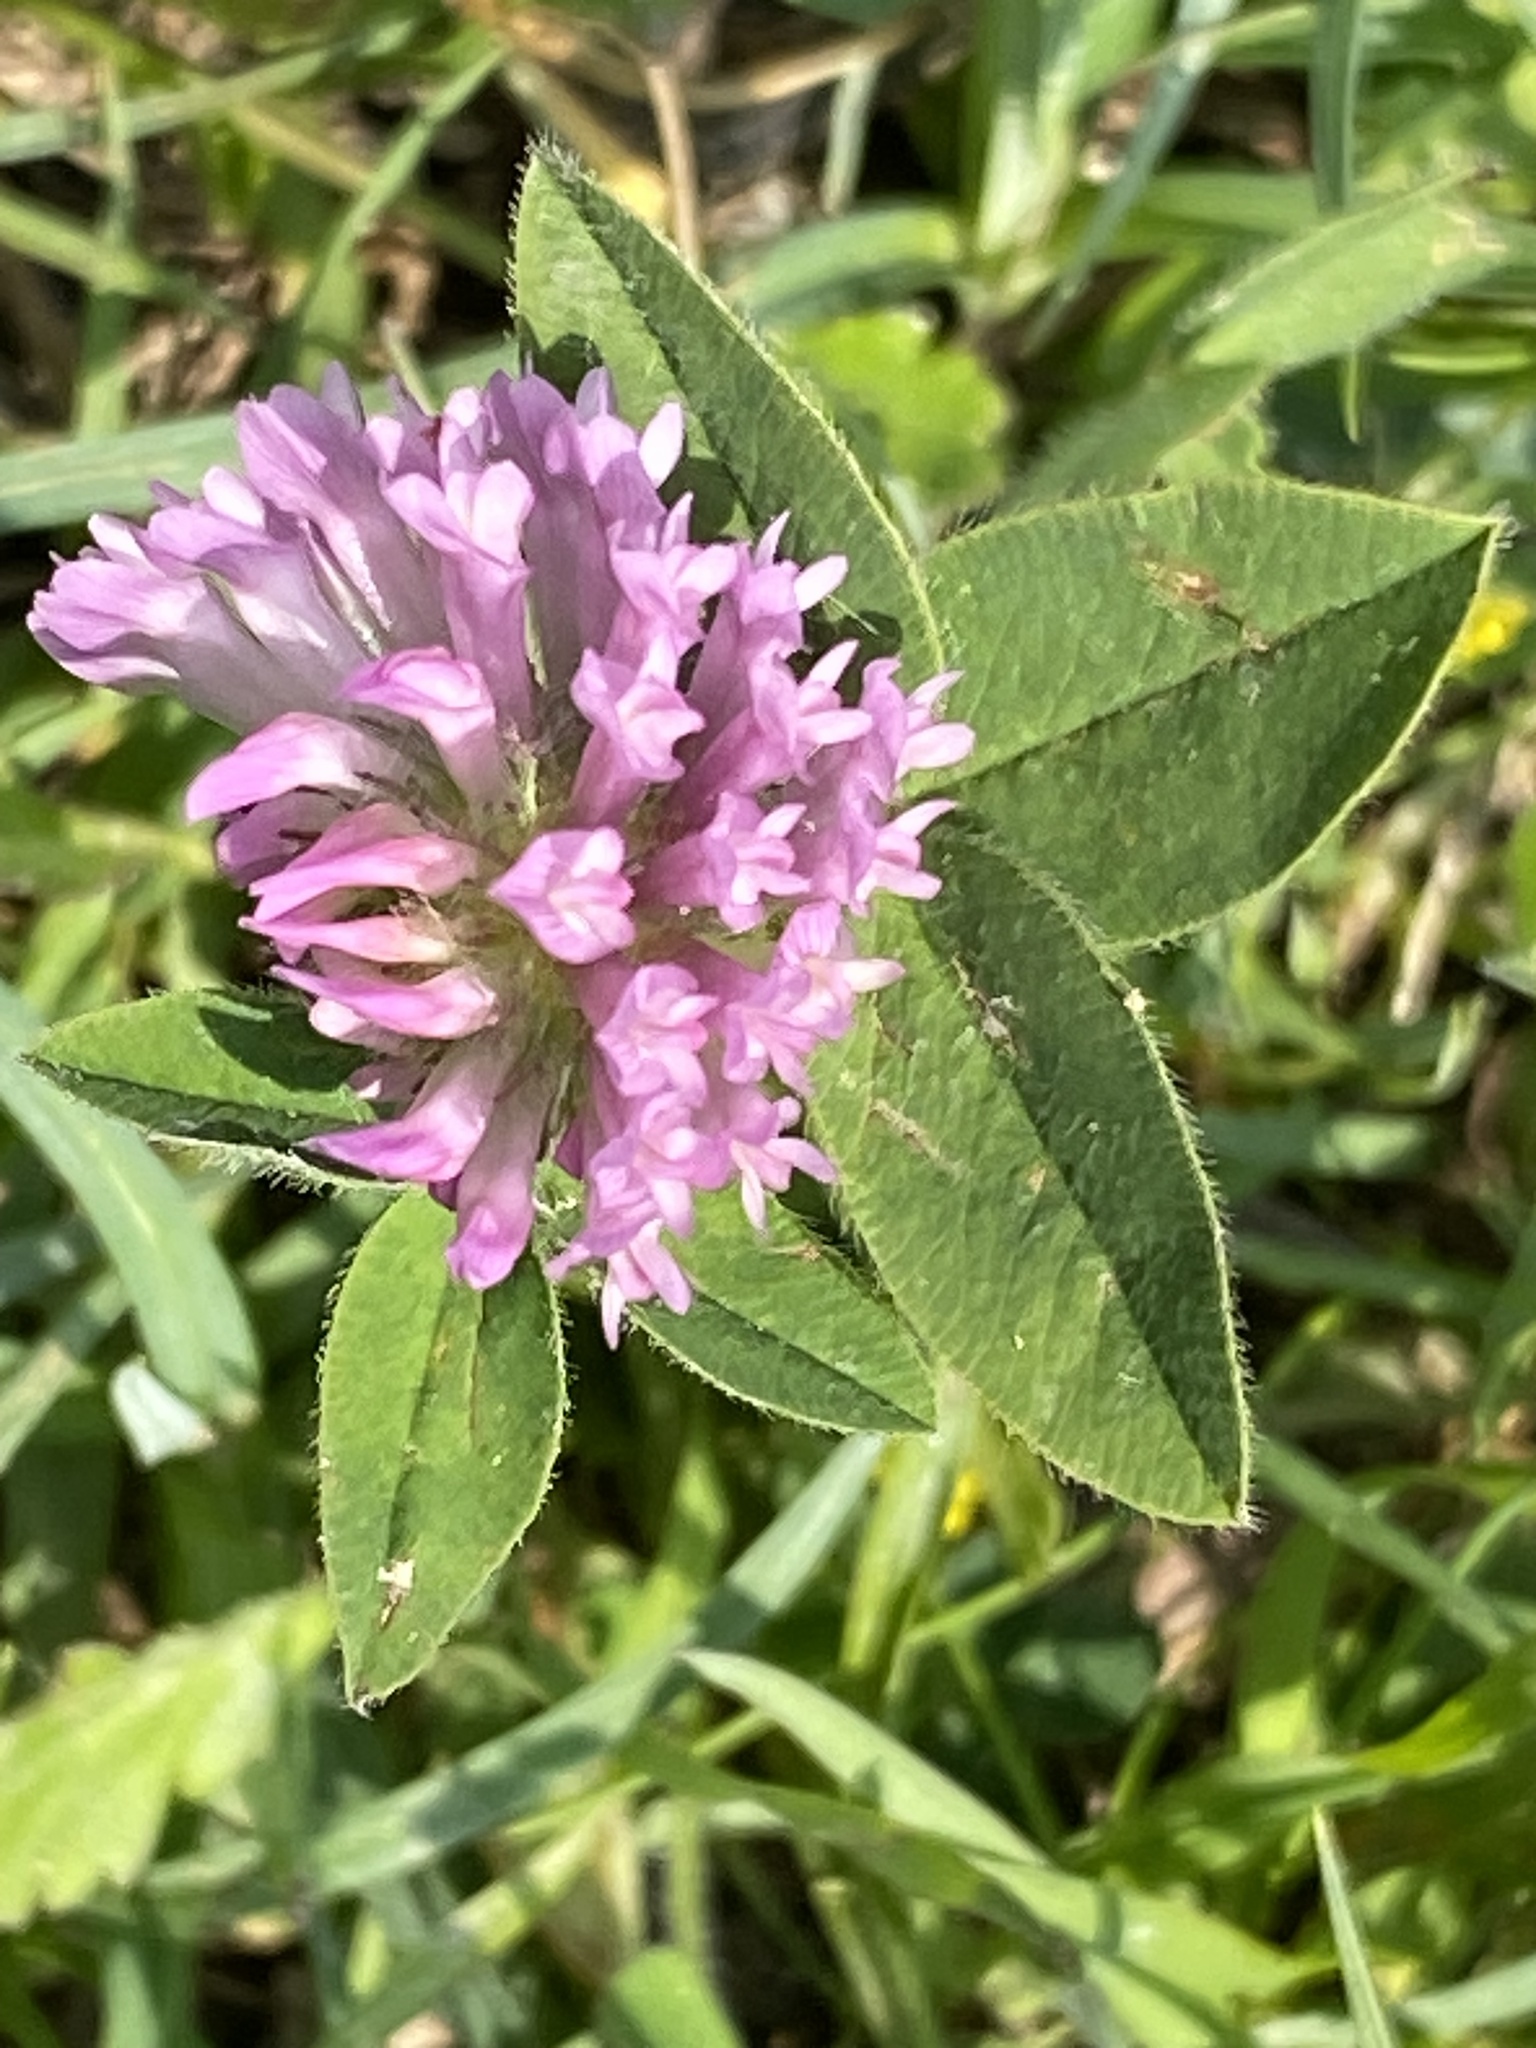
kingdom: Plantae
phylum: Tracheophyta
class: Magnoliopsida
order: Fabales
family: Fabaceae
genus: Trifolium
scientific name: Trifolium pratense
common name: Red clover
